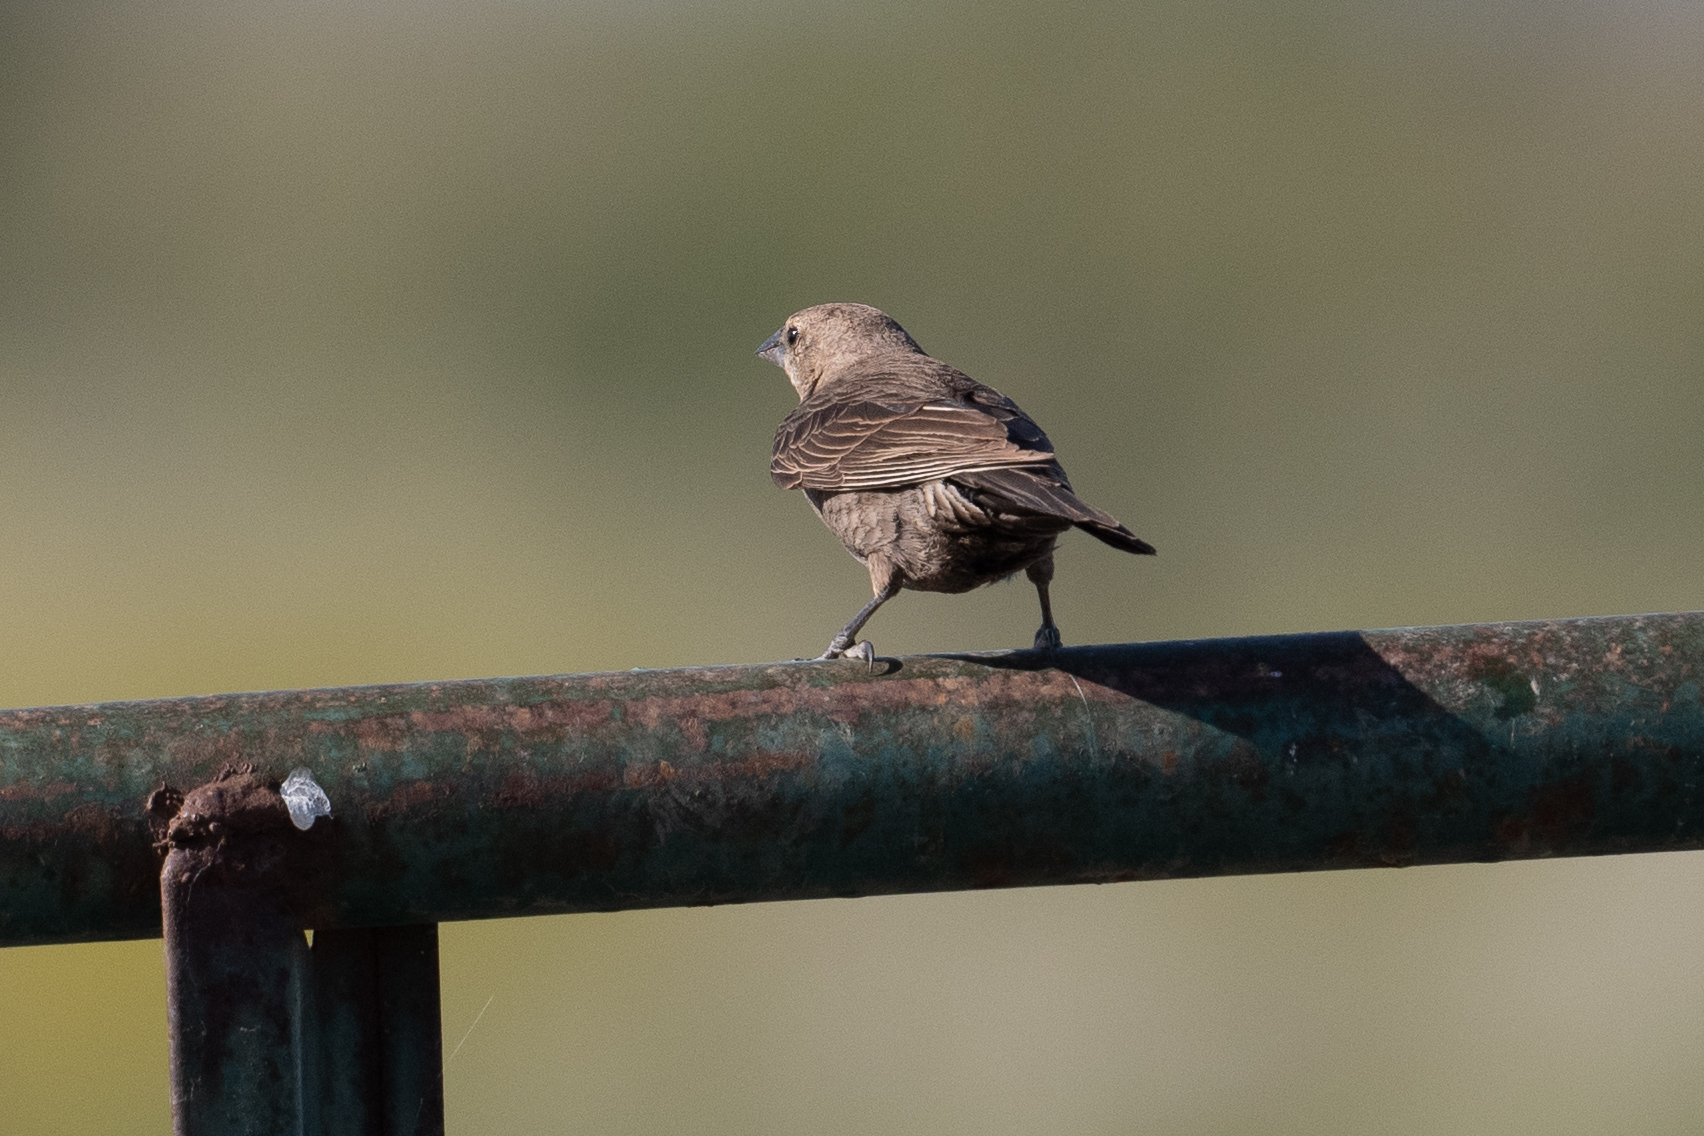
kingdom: Animalia
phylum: Chordata
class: Aves
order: Passeriformes
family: Icteridae
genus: Molothrus
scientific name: Molothrus ater
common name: Brown-headed cowbird
